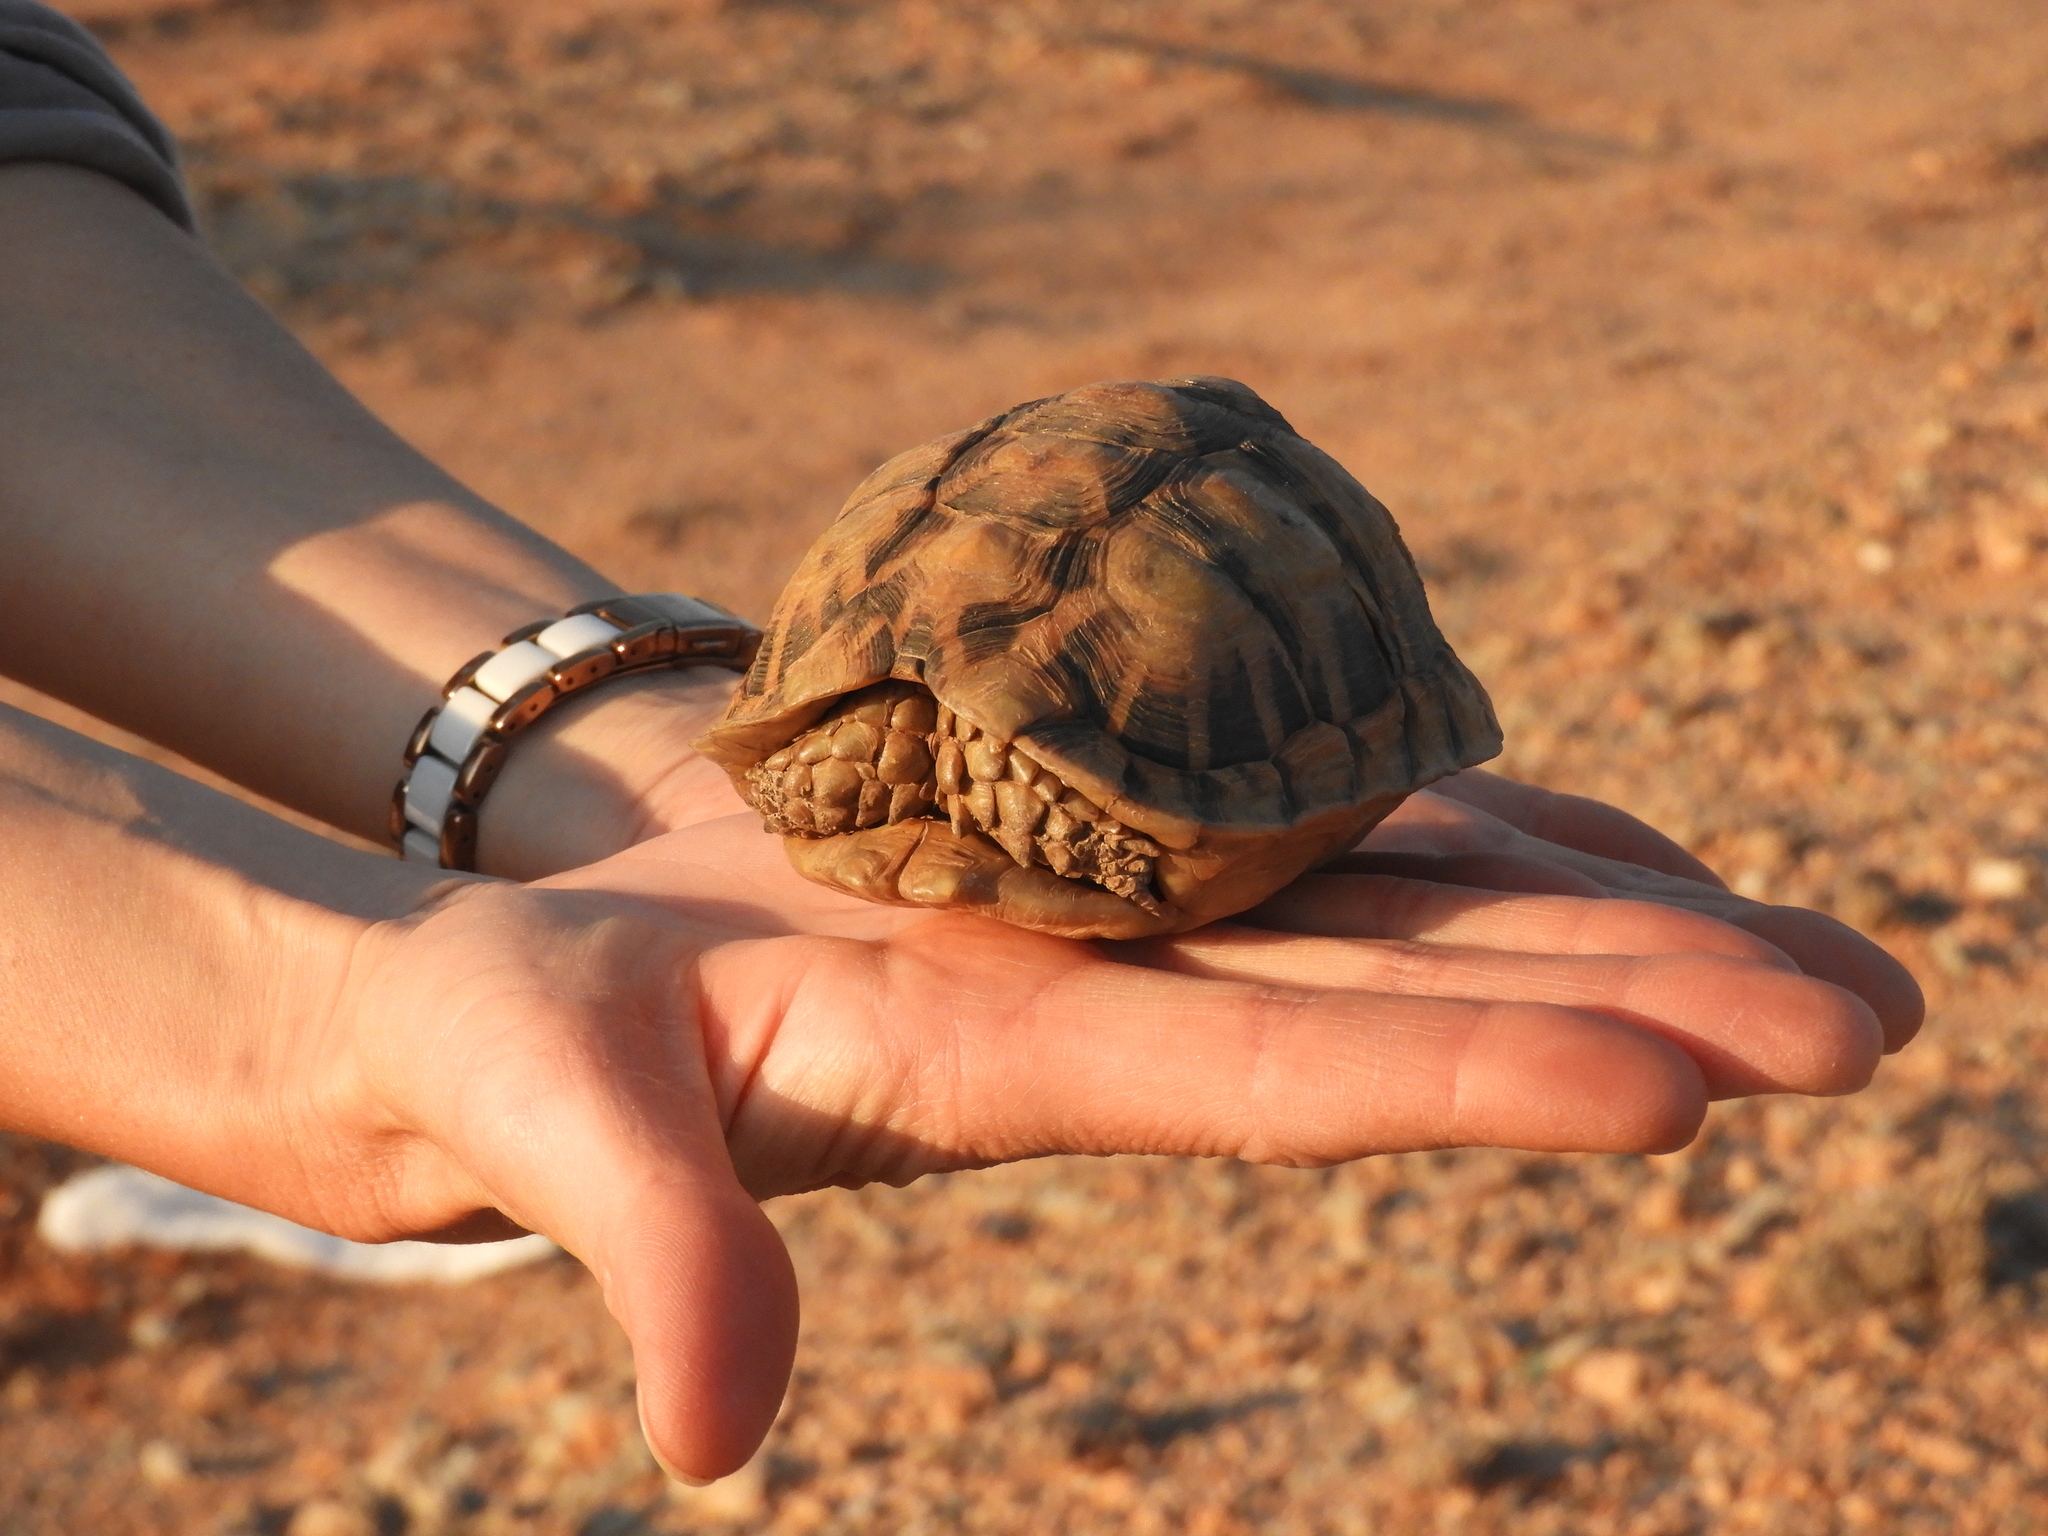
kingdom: Animalia
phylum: Chordata
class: Testudines
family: Testudinidae
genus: Psammobates
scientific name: Psammobates tentorius
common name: Tent tortoise
